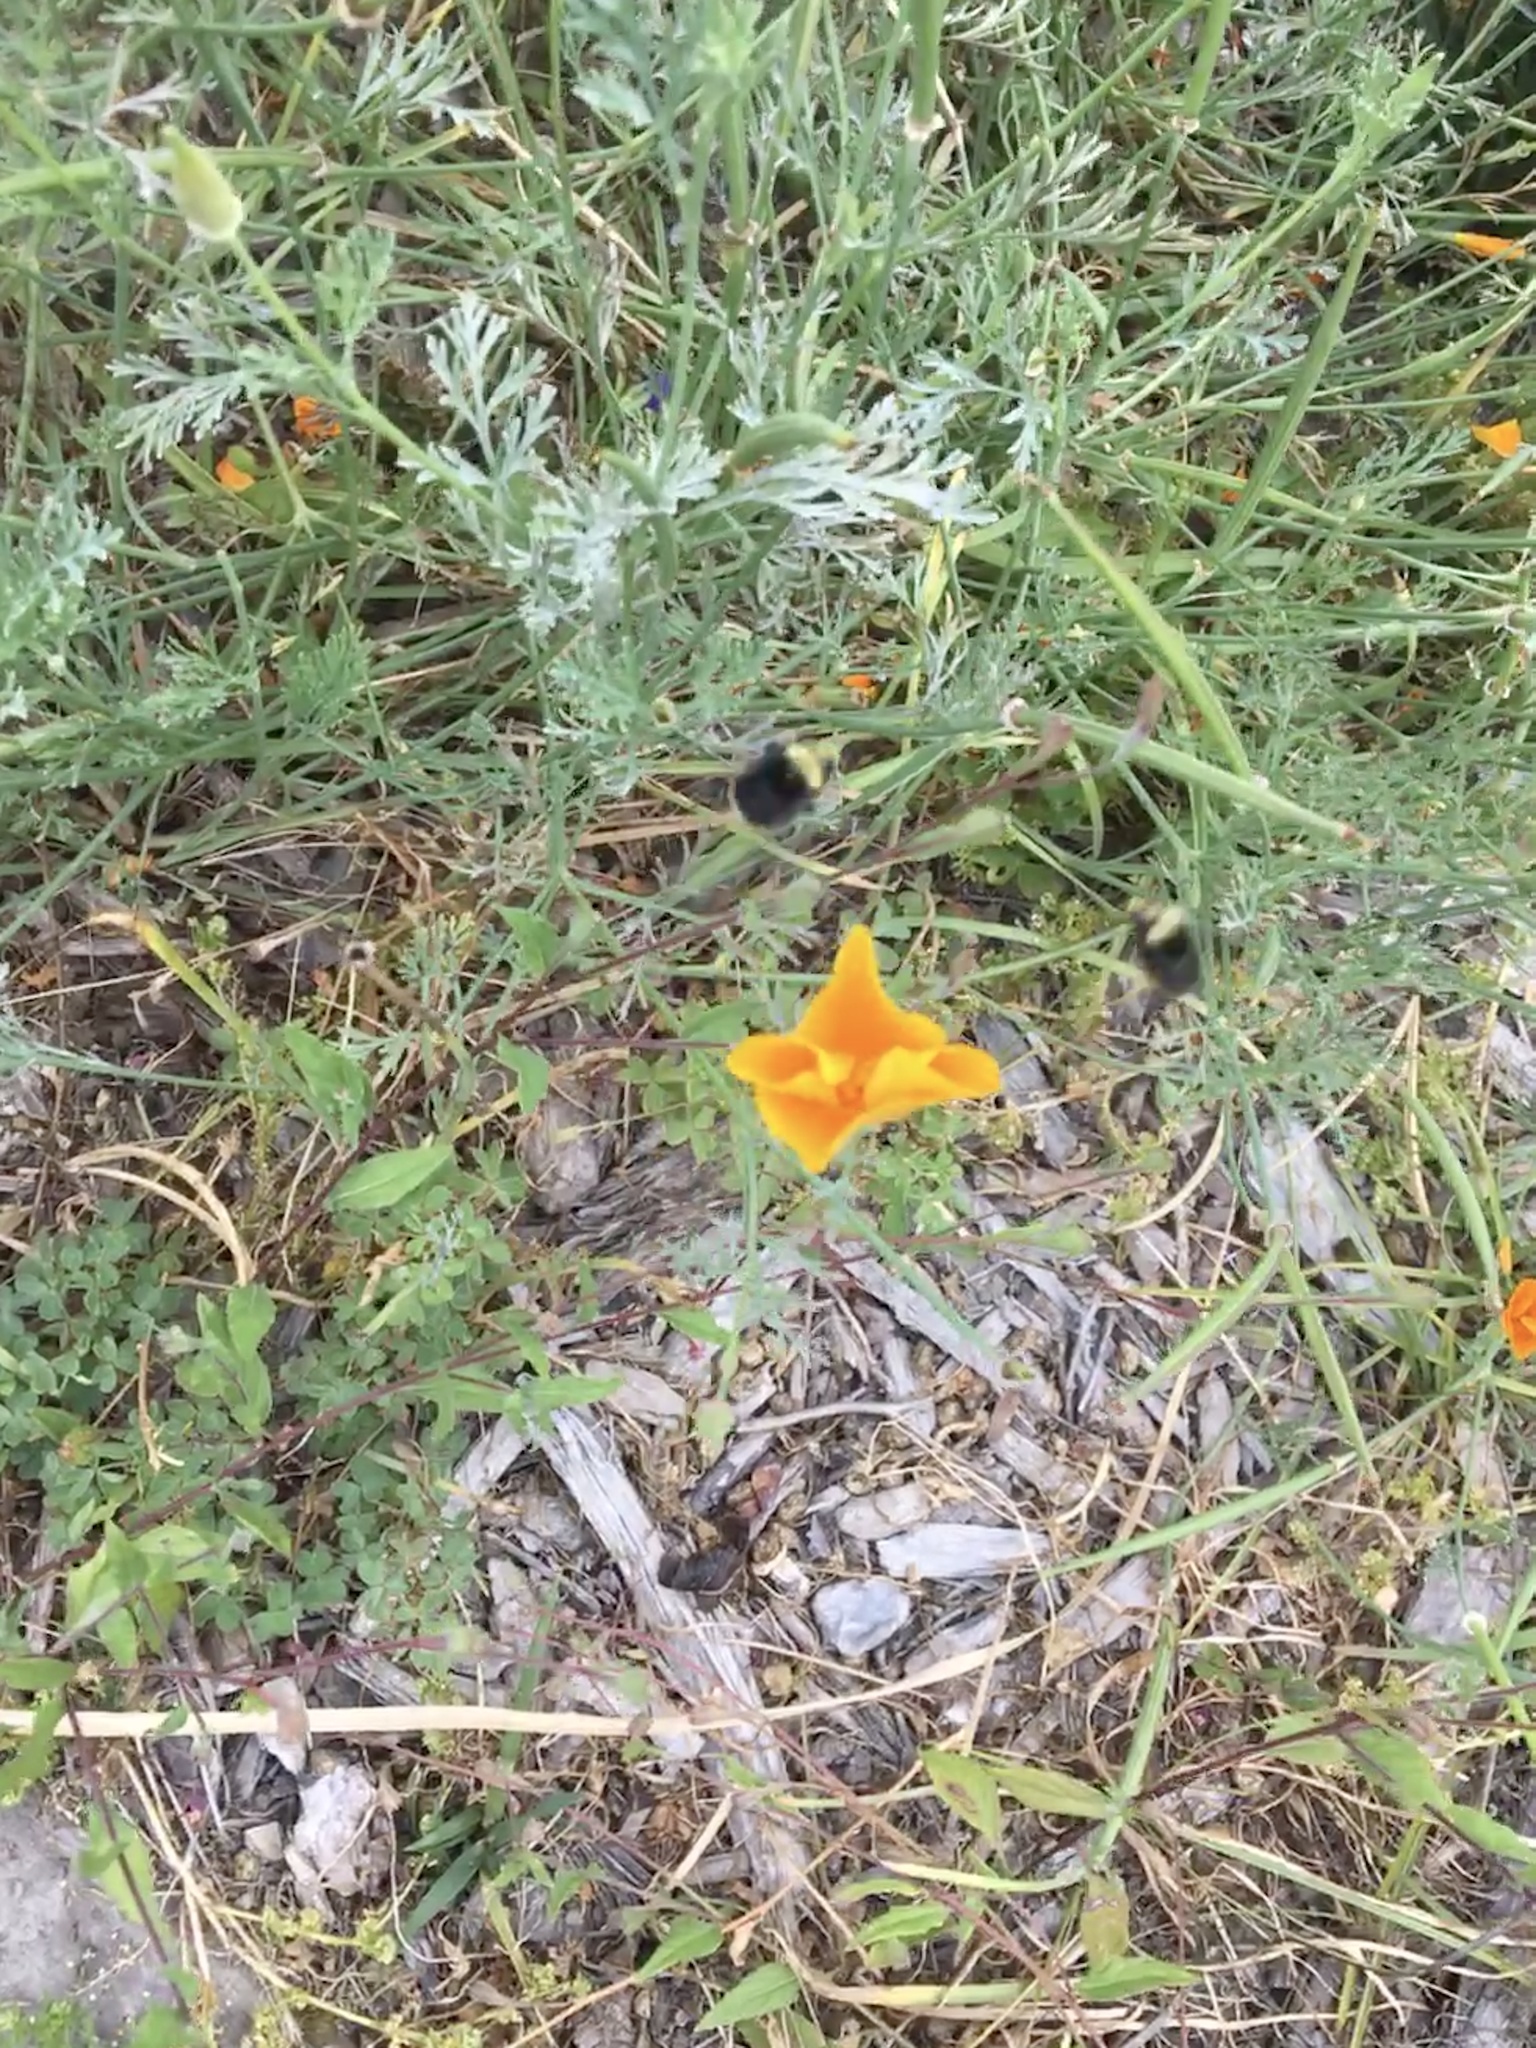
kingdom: Animalia
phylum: Arthropoda
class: Insecta
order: Hymenoptera
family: Apidae
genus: Bombus
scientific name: Bombus vosnesenskii
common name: Vosnesensky bumble bee
